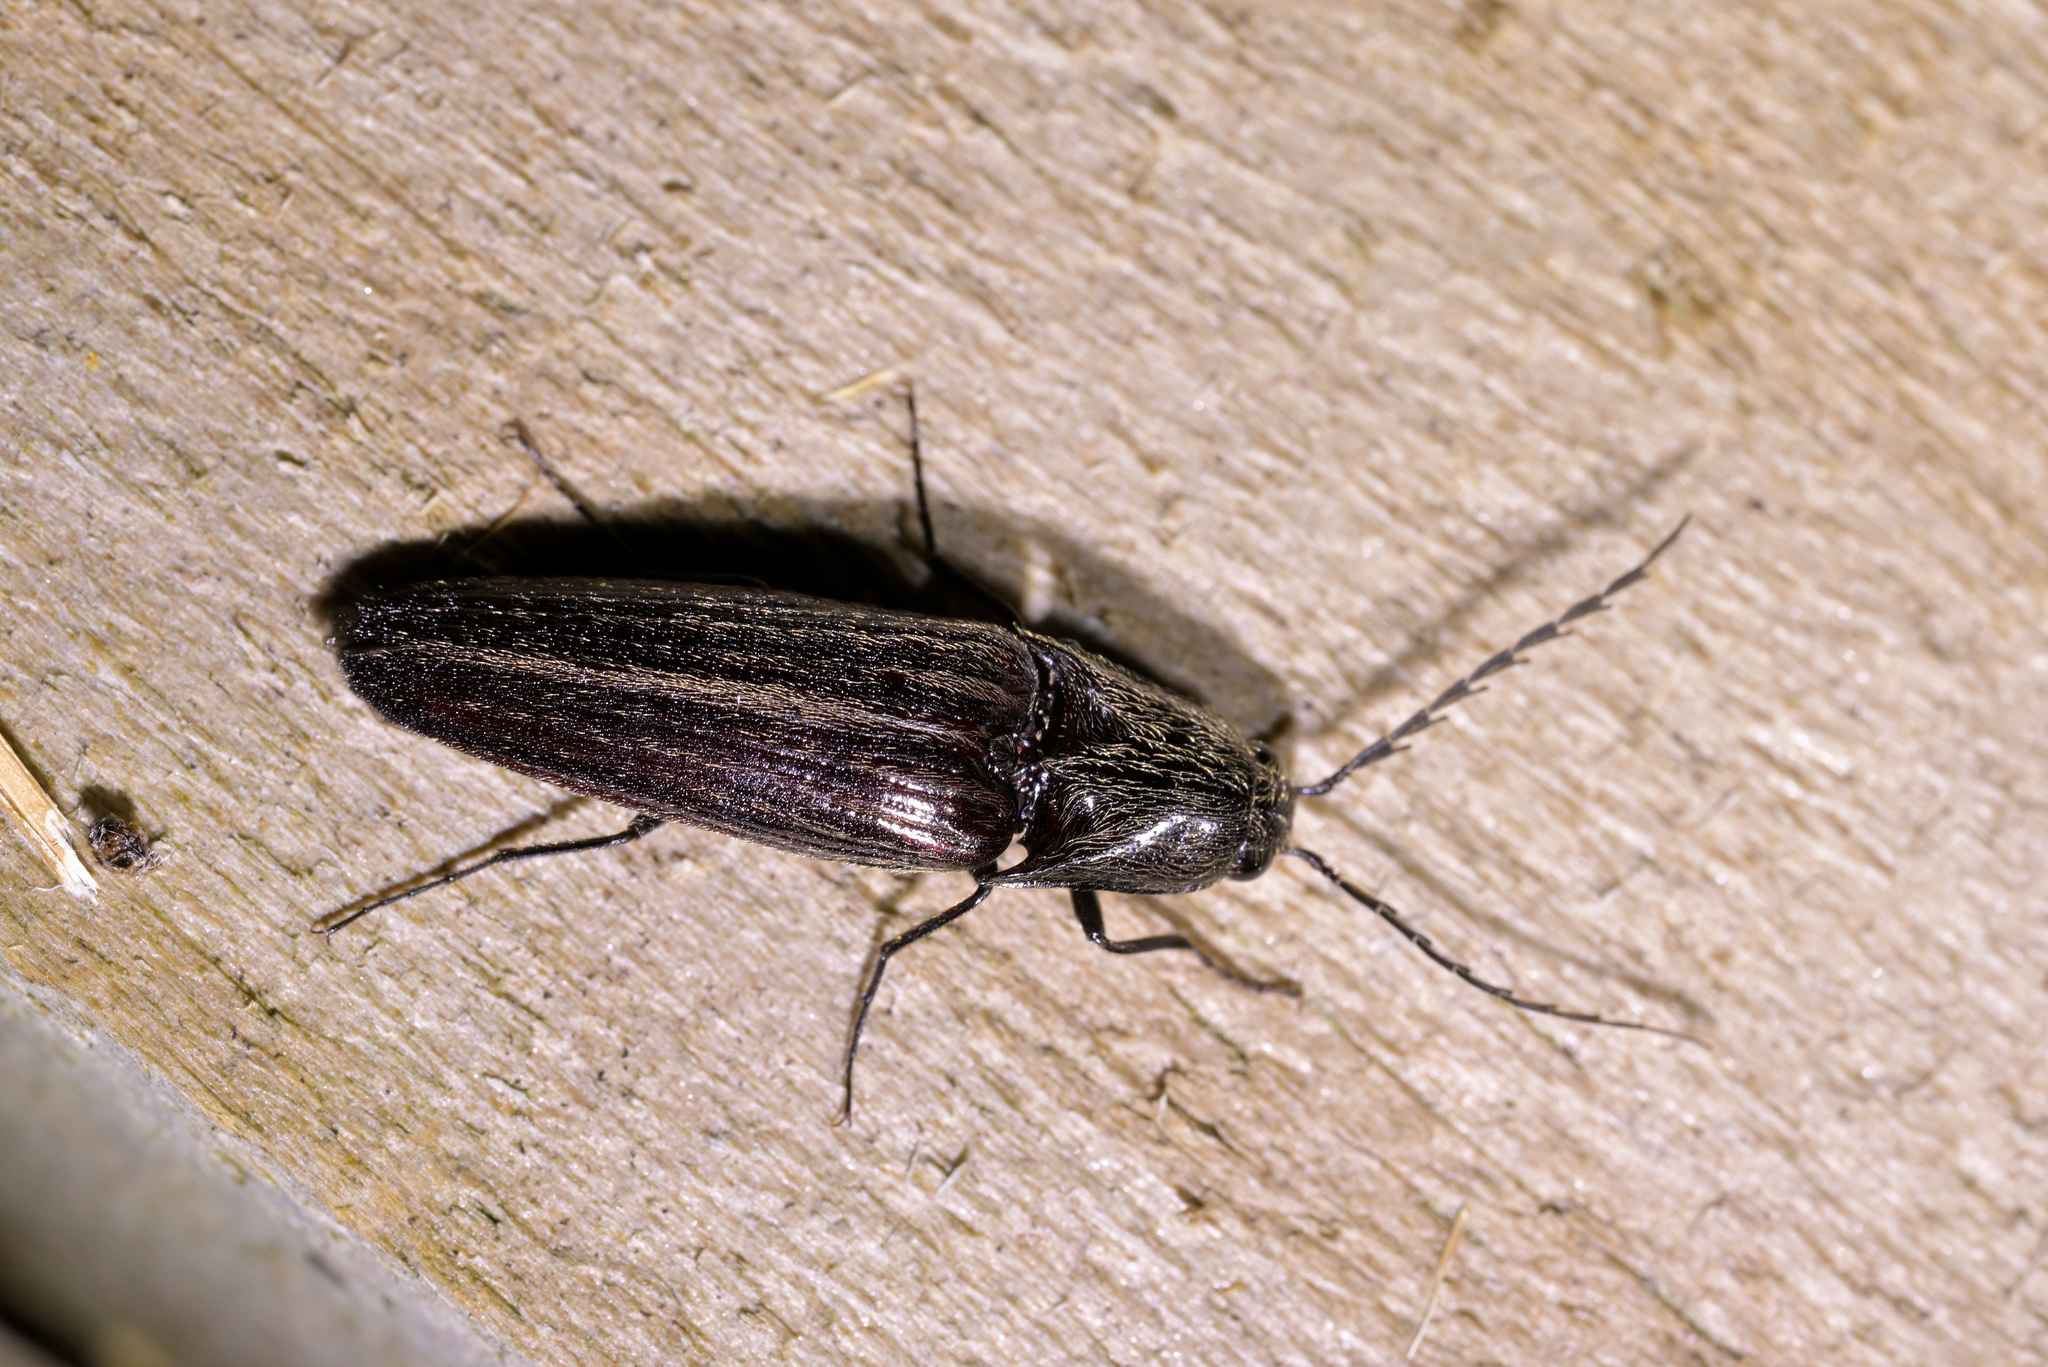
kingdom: Animalia
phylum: Arthropoda
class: Insecta
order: Coleoptera
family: Elateridae
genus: Thoramus
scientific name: Thoramus
